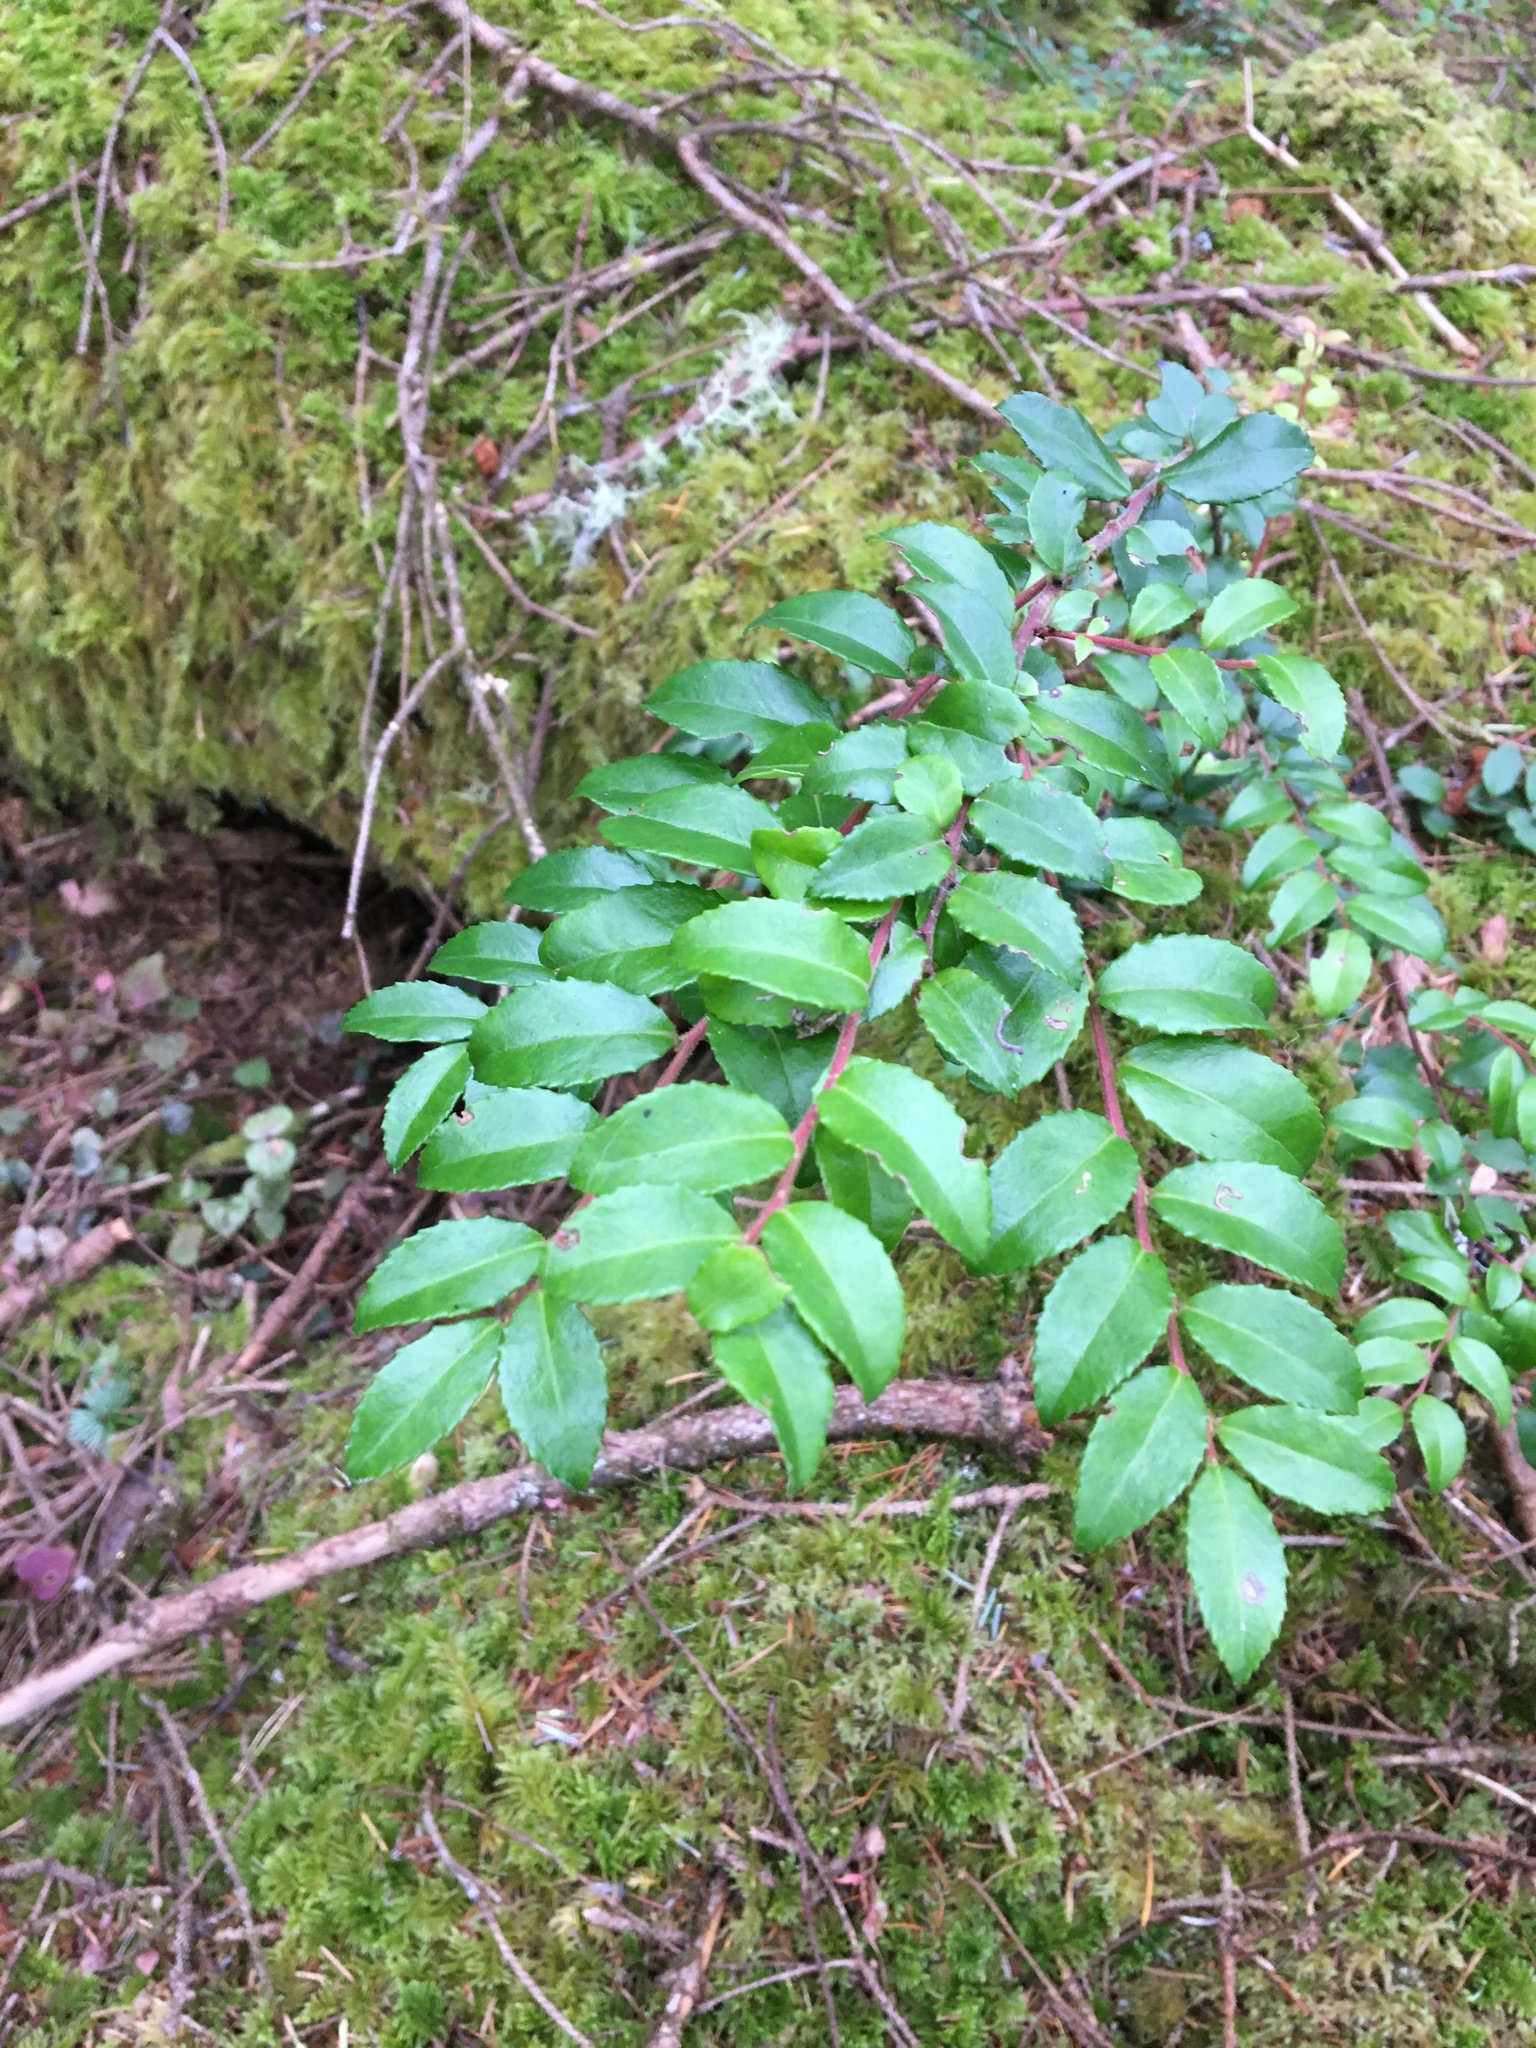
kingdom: Plantae
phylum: Tracheophyta
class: Magnoliopsida
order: Ericales
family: Ericaceae
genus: Vaccinium
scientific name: Vaccinium ovatum
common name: California-huckleberry
